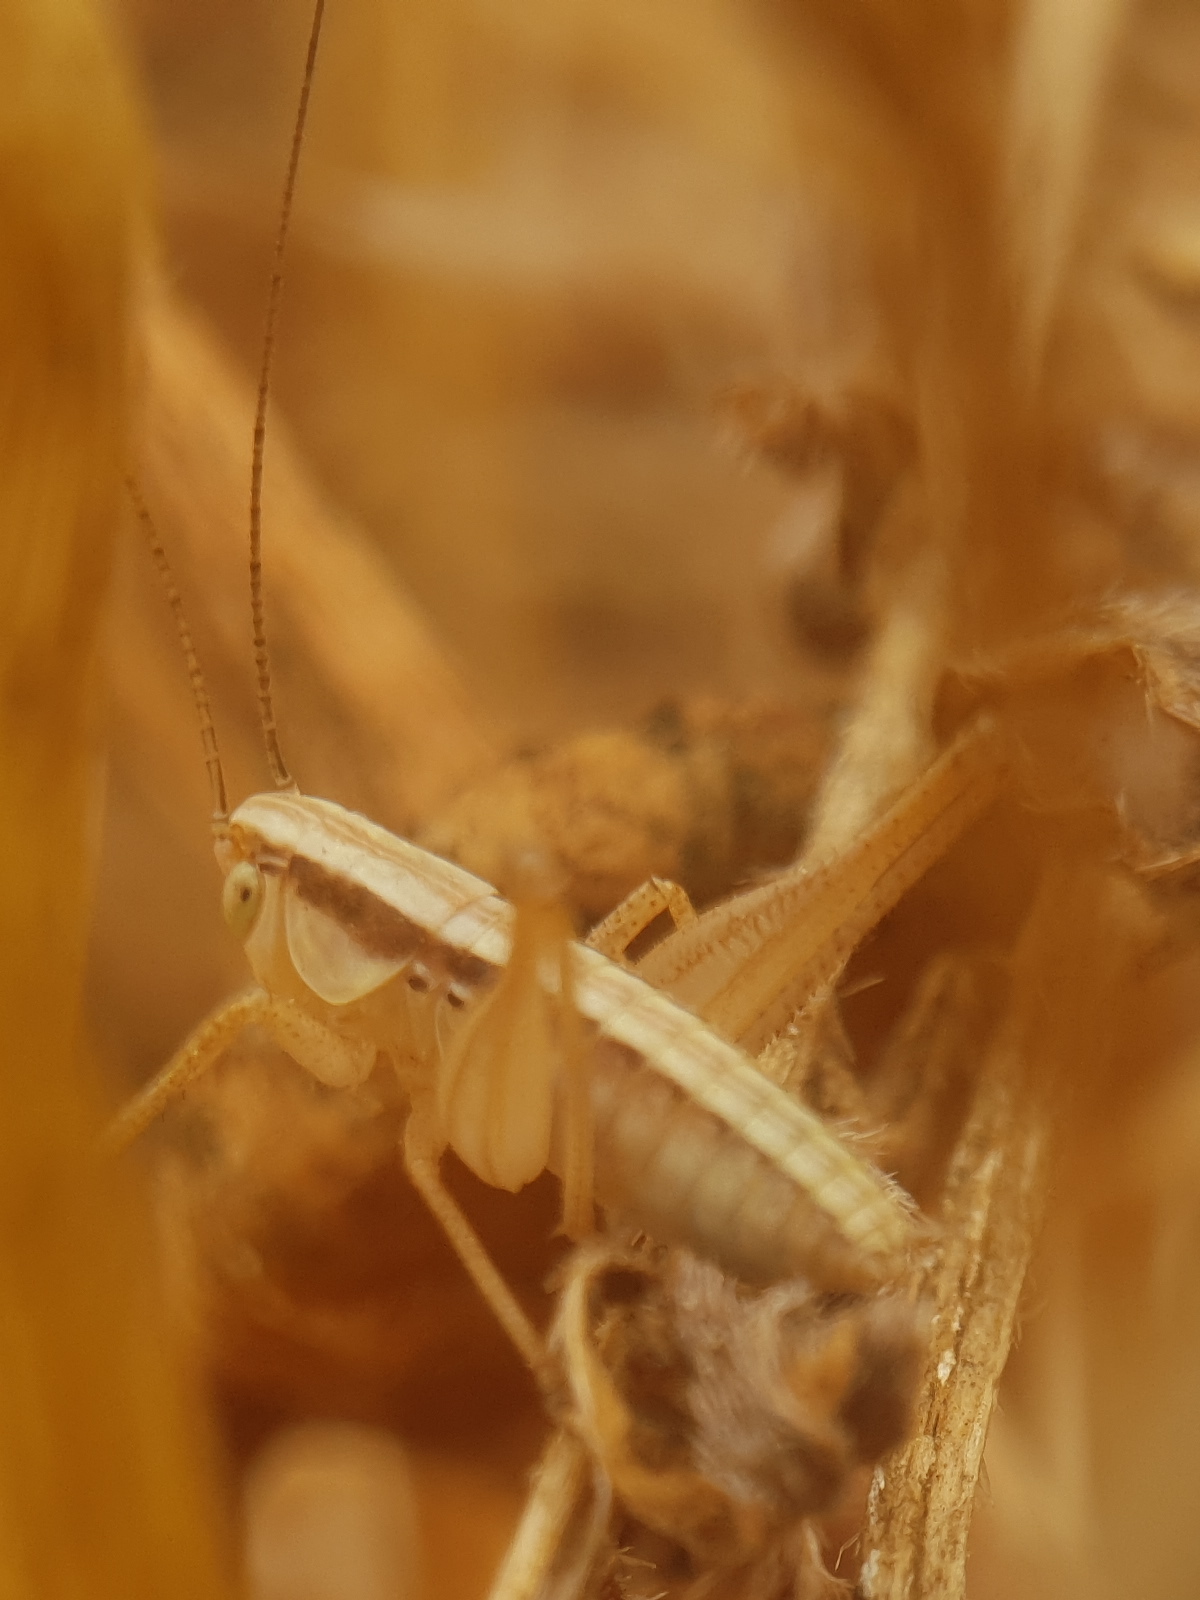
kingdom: Animalia
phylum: Arthropoda
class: Insecta
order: Orthoptera
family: Tettigoniidae
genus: Tessellana
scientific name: Tessellana tessellata
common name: Grasshopper
